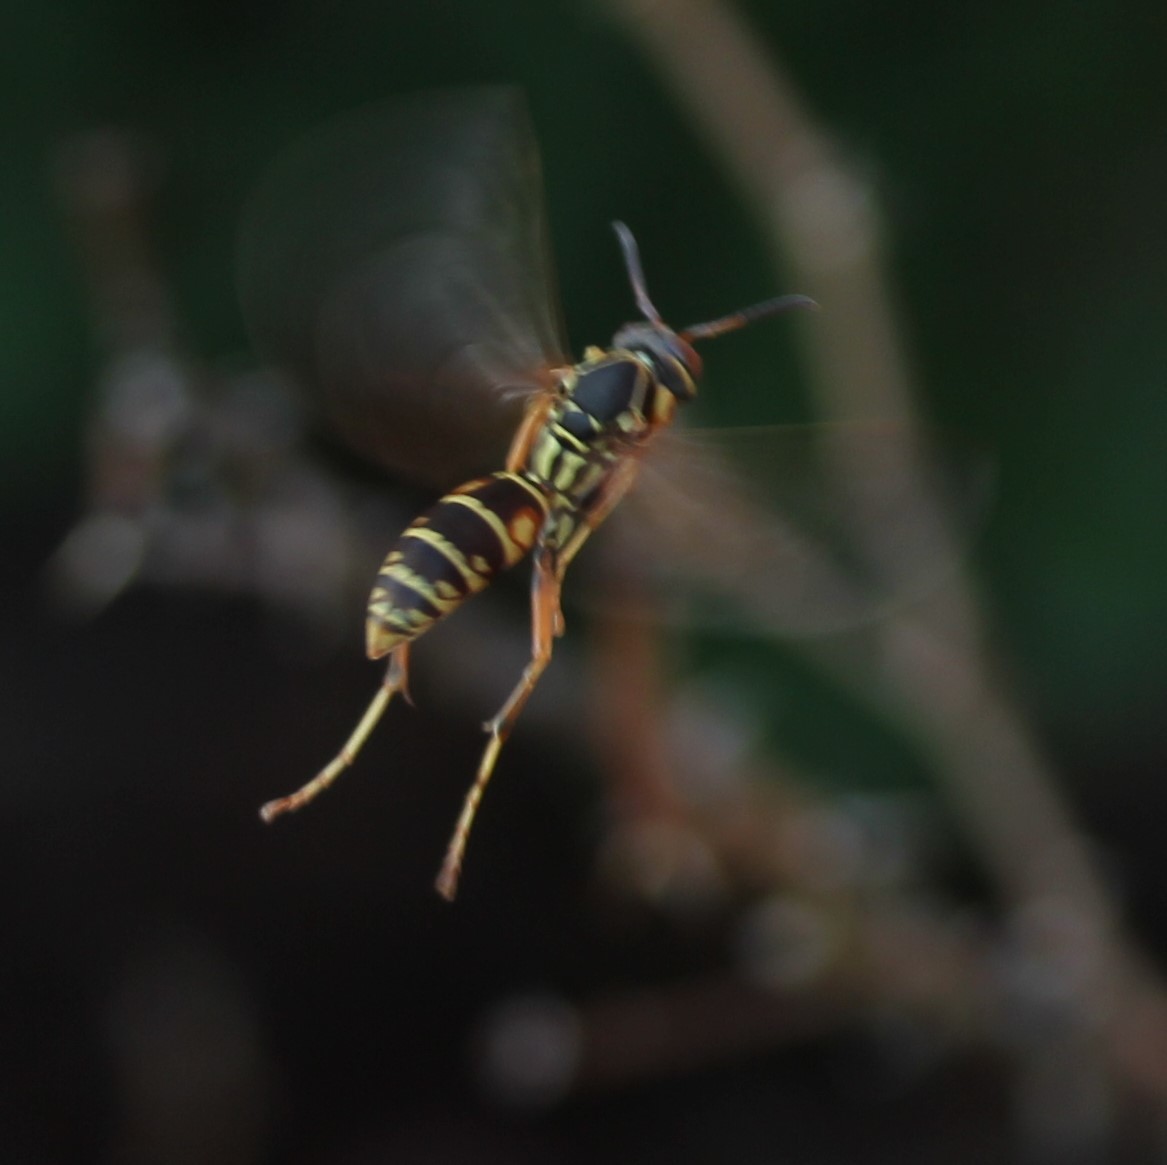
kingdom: Animalia
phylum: Arthropoda
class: Insecta
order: Hymenoptera
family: Eumenidae
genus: Polistes
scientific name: Polistes fuscatus
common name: Dark paper wasp
